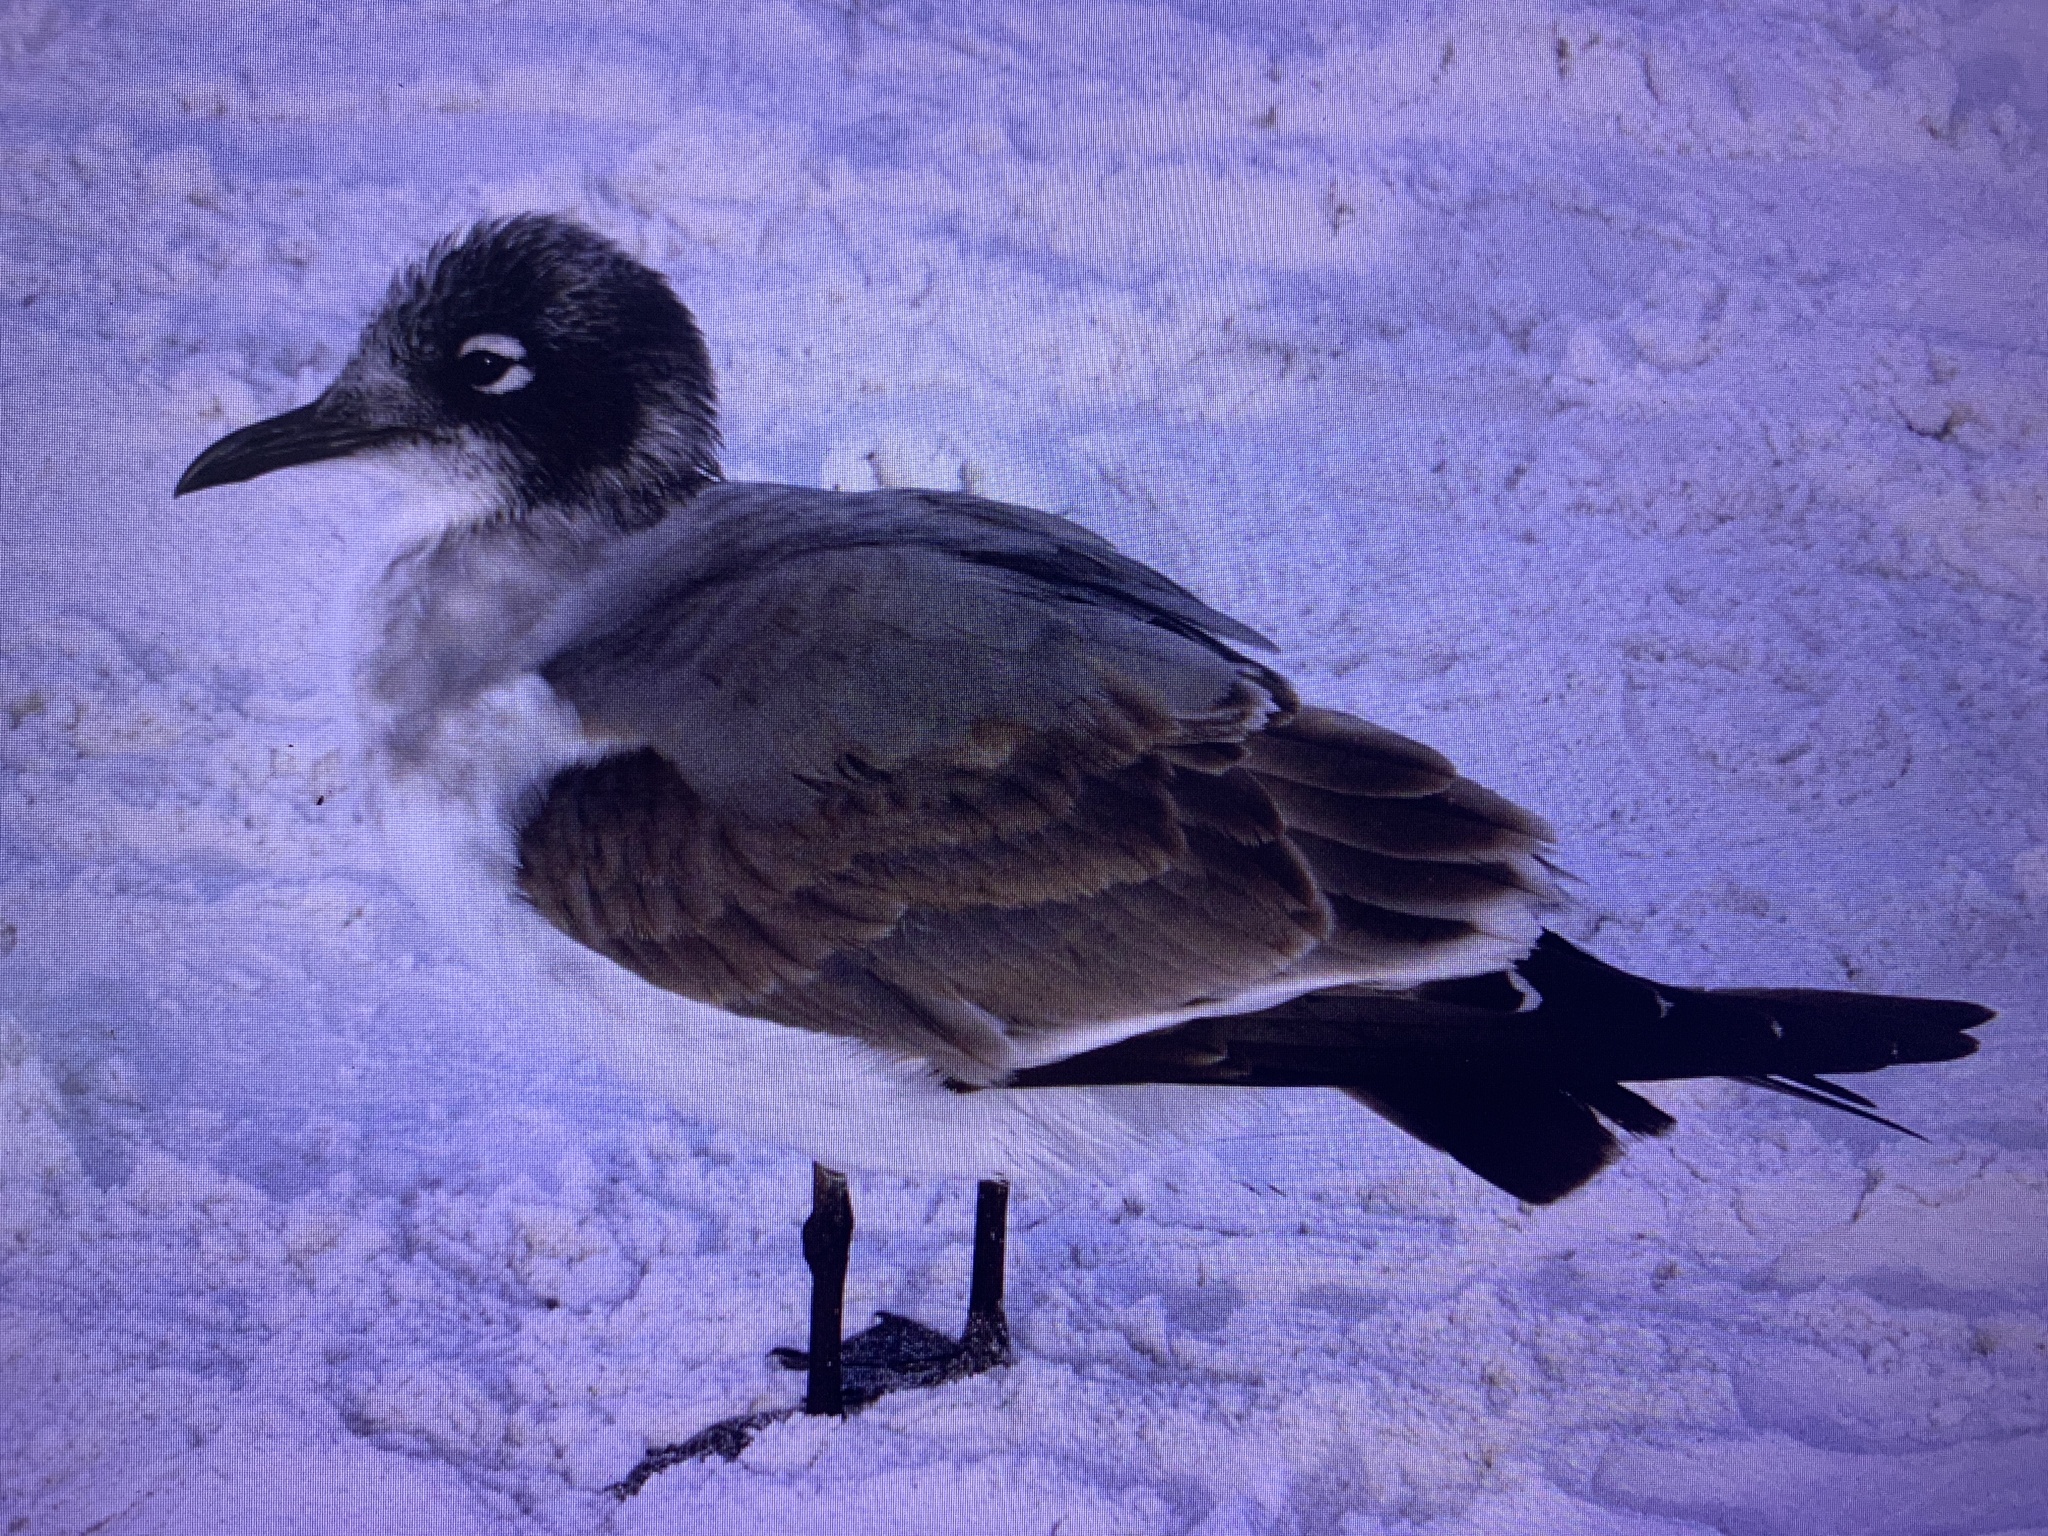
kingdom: Animalia
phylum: Chordata
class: Aves
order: Charadriiformes
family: Laridae
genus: Leucophaeus
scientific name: Leucophaeus pipixcan
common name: Franklin's gull
